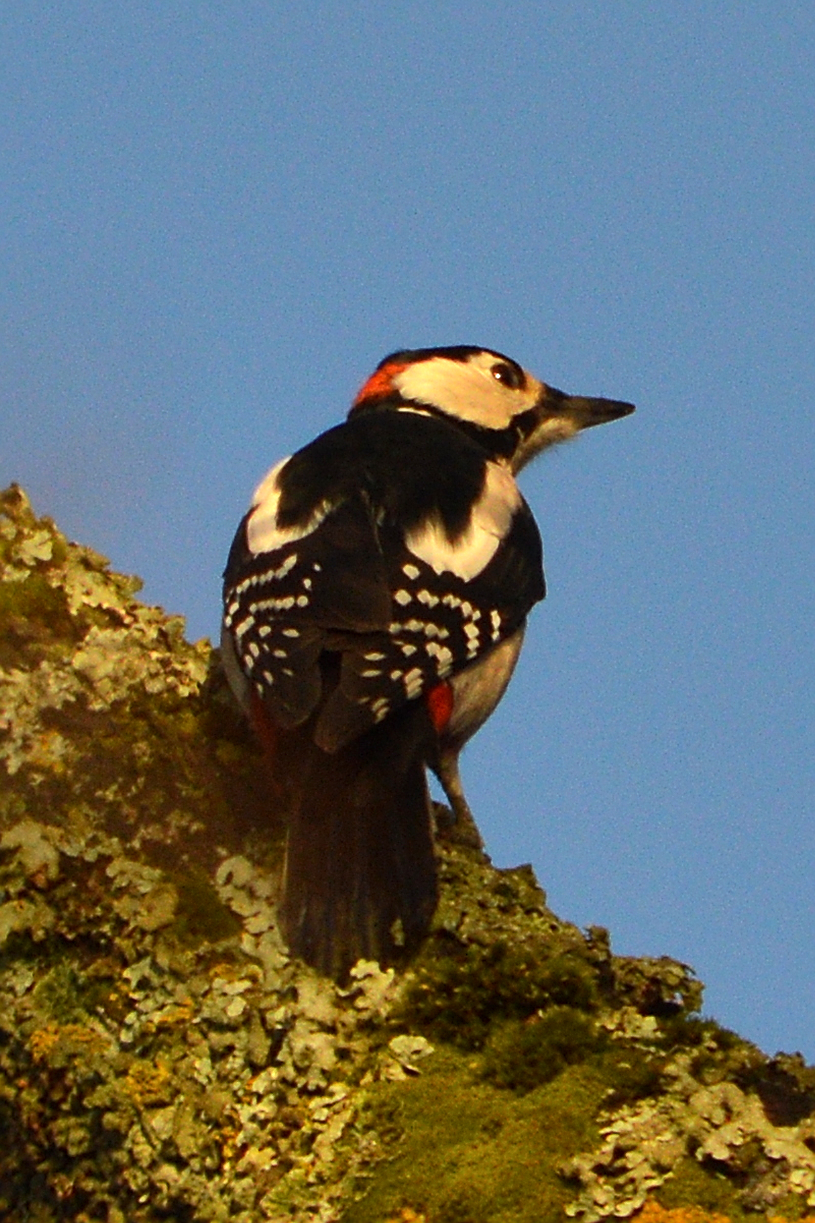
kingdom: Animalia
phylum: Chordata
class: Aves
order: Piciformes
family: Picidae
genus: Dendrocopos
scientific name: Dendrocopos major
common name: Great spotted woodpecker
